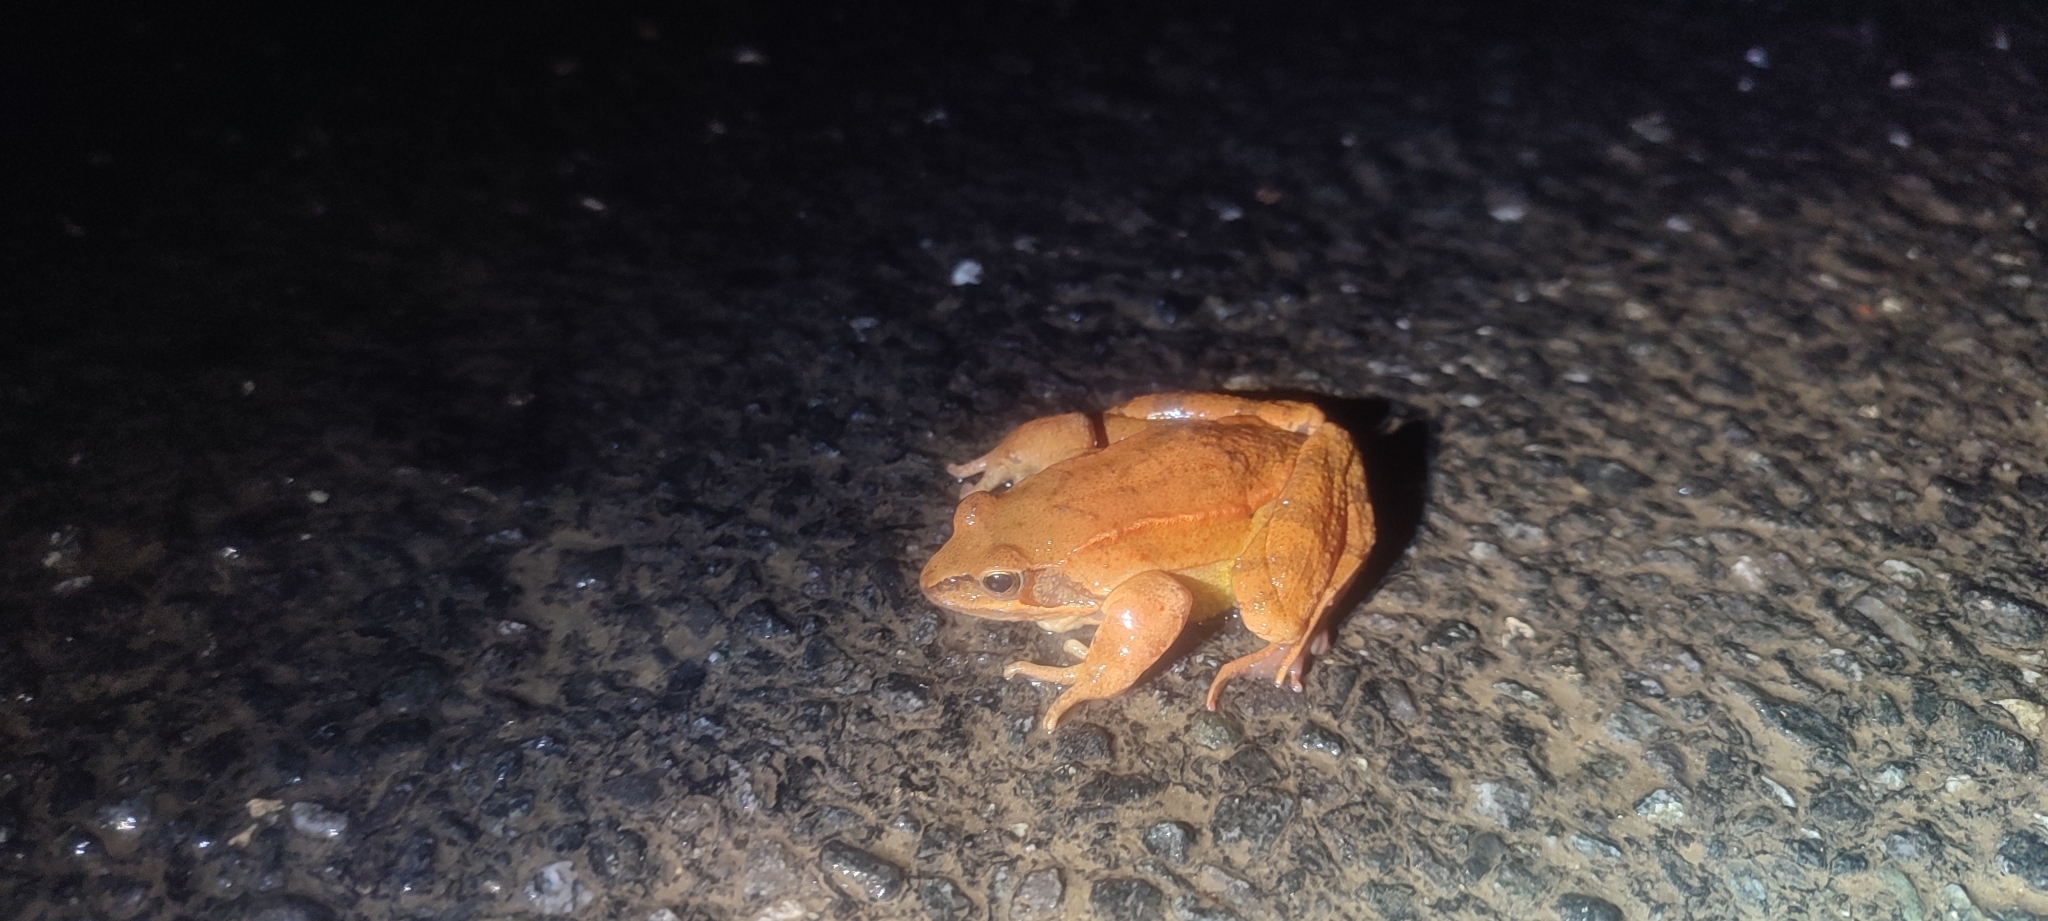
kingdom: Animalia
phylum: Chordata
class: Amphibia
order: Anura
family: Ranidae
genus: Rana
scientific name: Rana dalmatina
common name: Agile frog
